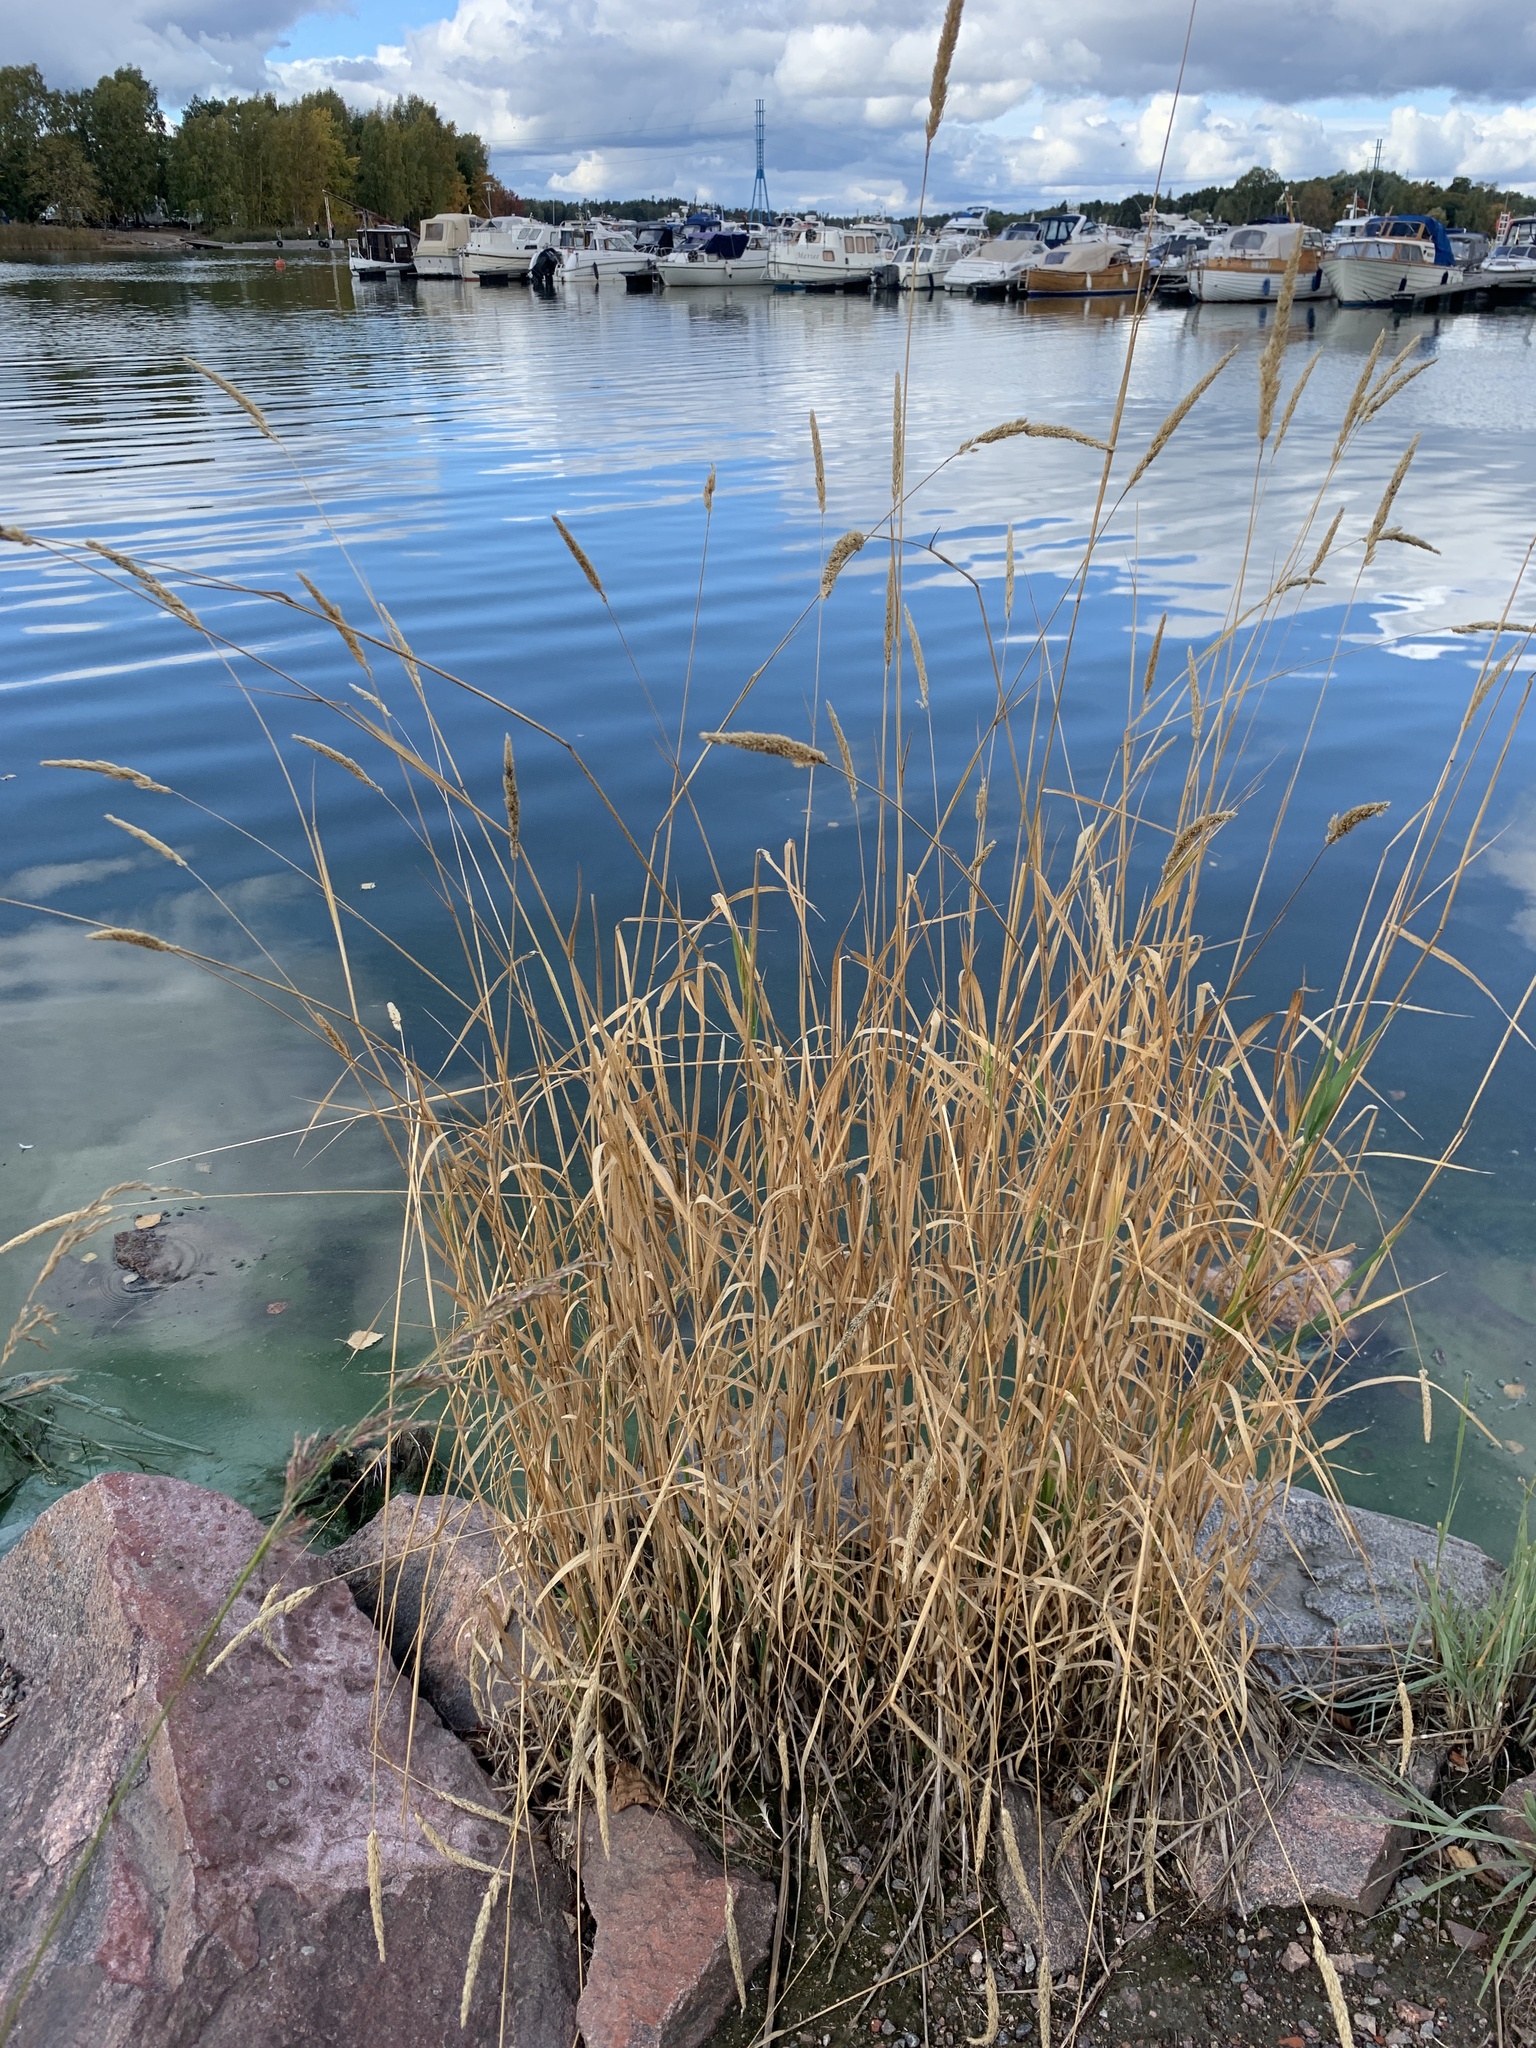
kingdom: Plantae
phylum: Tracheophyta
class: Liliopsida
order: Poales
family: Poaceae
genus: Phalaris
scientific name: Phalaris arundinacea
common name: Reed canary-grass
